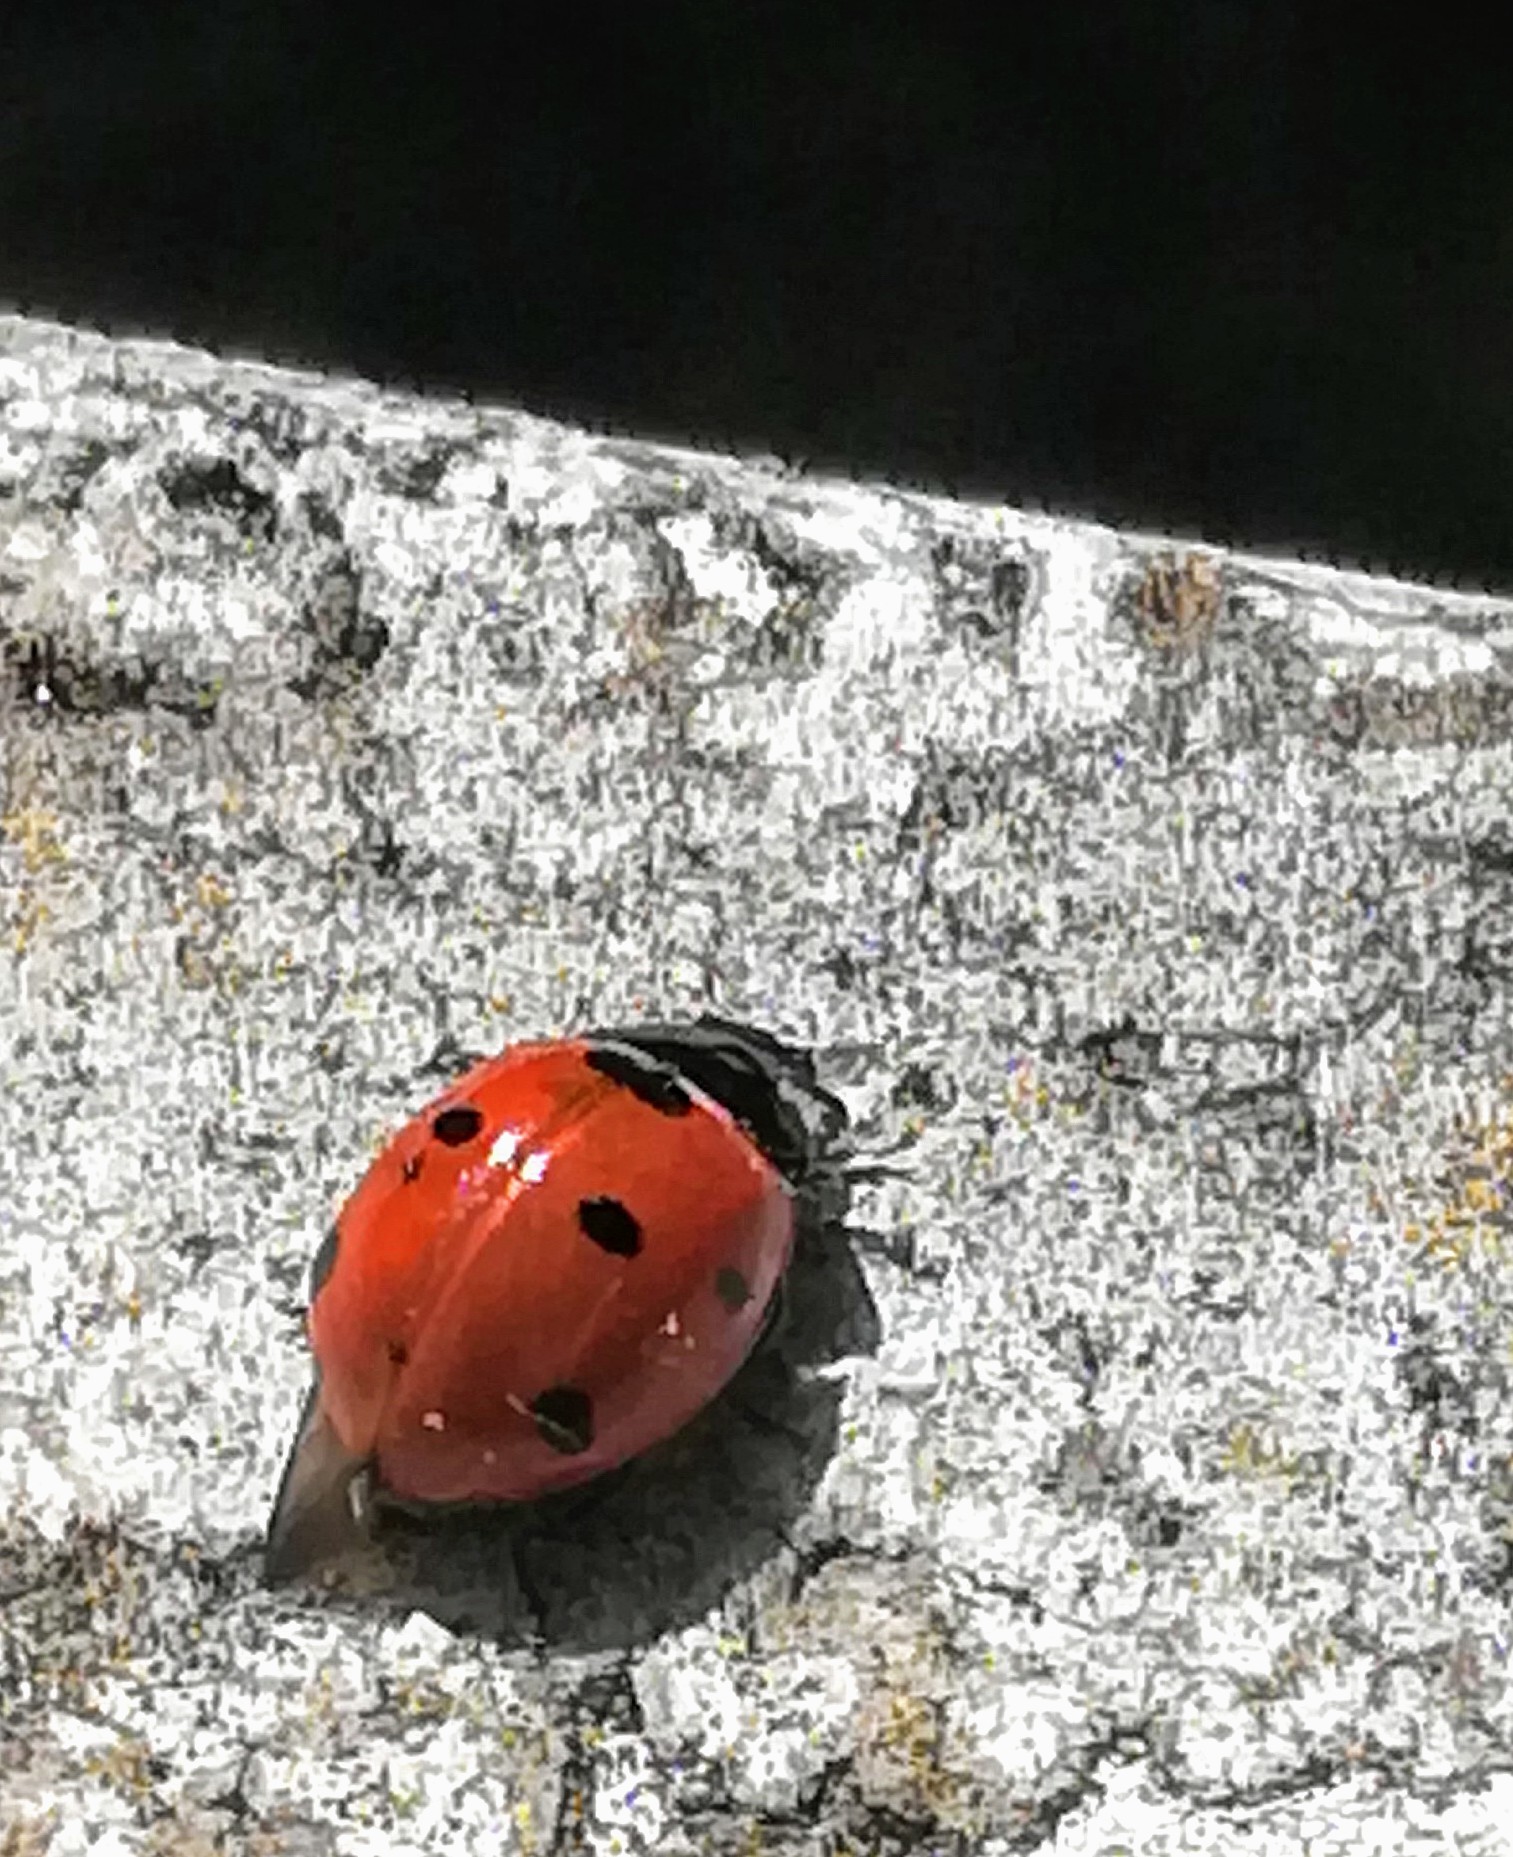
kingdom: Animalia
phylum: Arthropoda
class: Insecta
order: Coleoptera
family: Coccinellidae
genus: Coccinella
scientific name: Coccinella septempunctata
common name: Sevenspotted lady beetle
